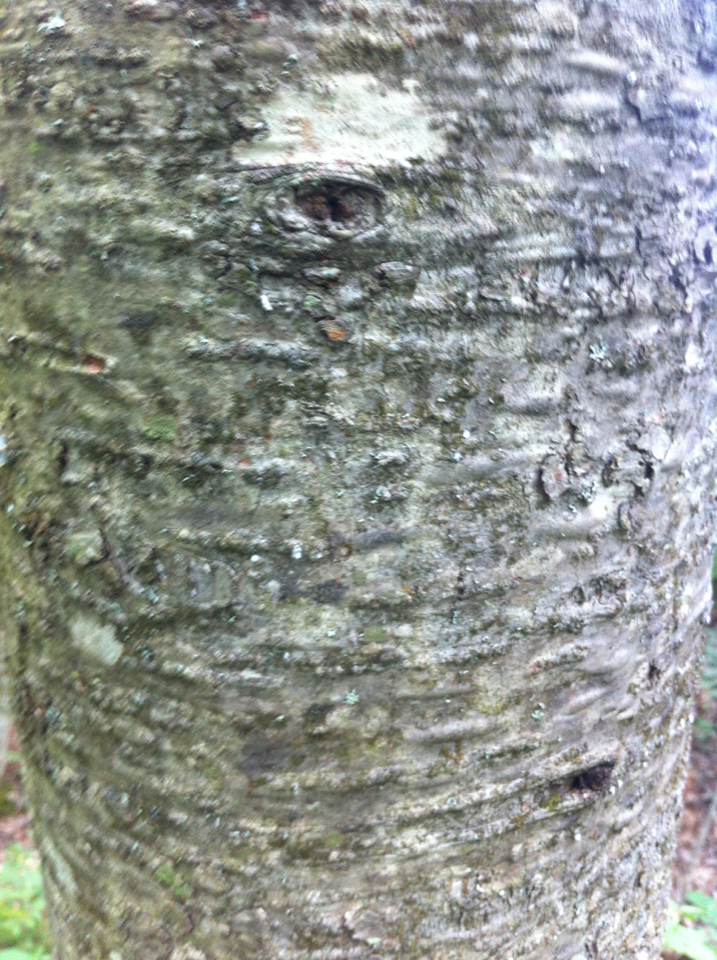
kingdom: Plantae
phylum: Tracheophyta
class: Pinopsida
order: Pinales
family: Pinaceae
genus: Abies
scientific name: Abies balsamea
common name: Balsam fir
